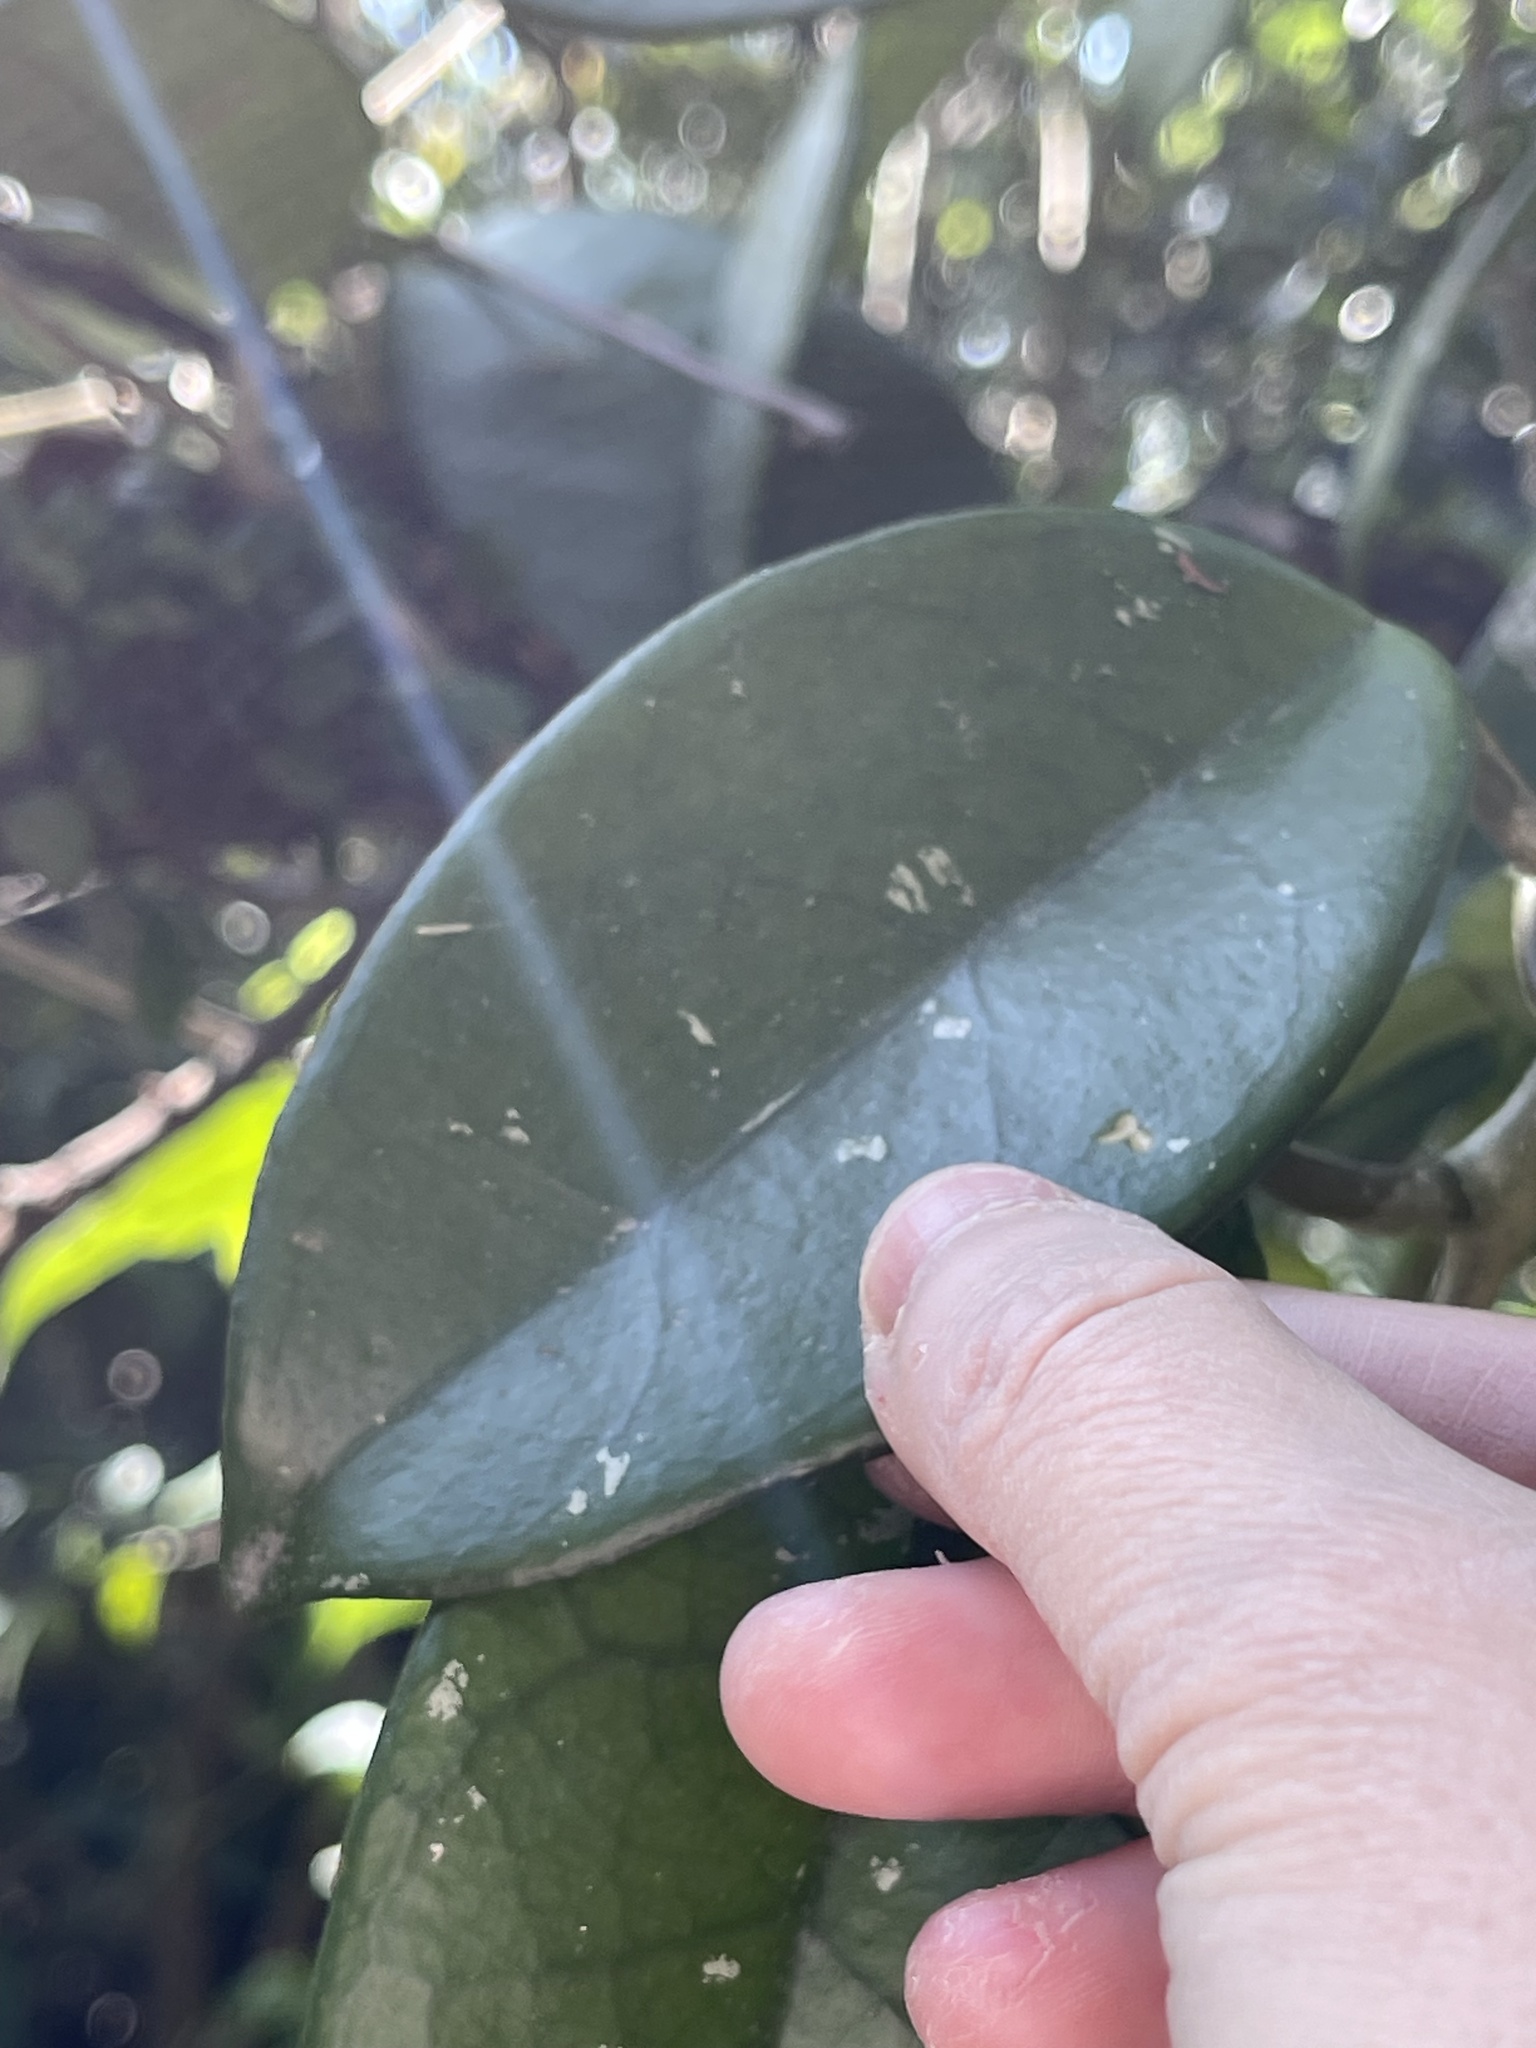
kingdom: Plantae
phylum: Tracheophyta
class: Magnoliopsida
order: Gentianales
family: Apocynaceae
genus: Hoya
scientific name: Hoya carnosa
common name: Honeyplant
